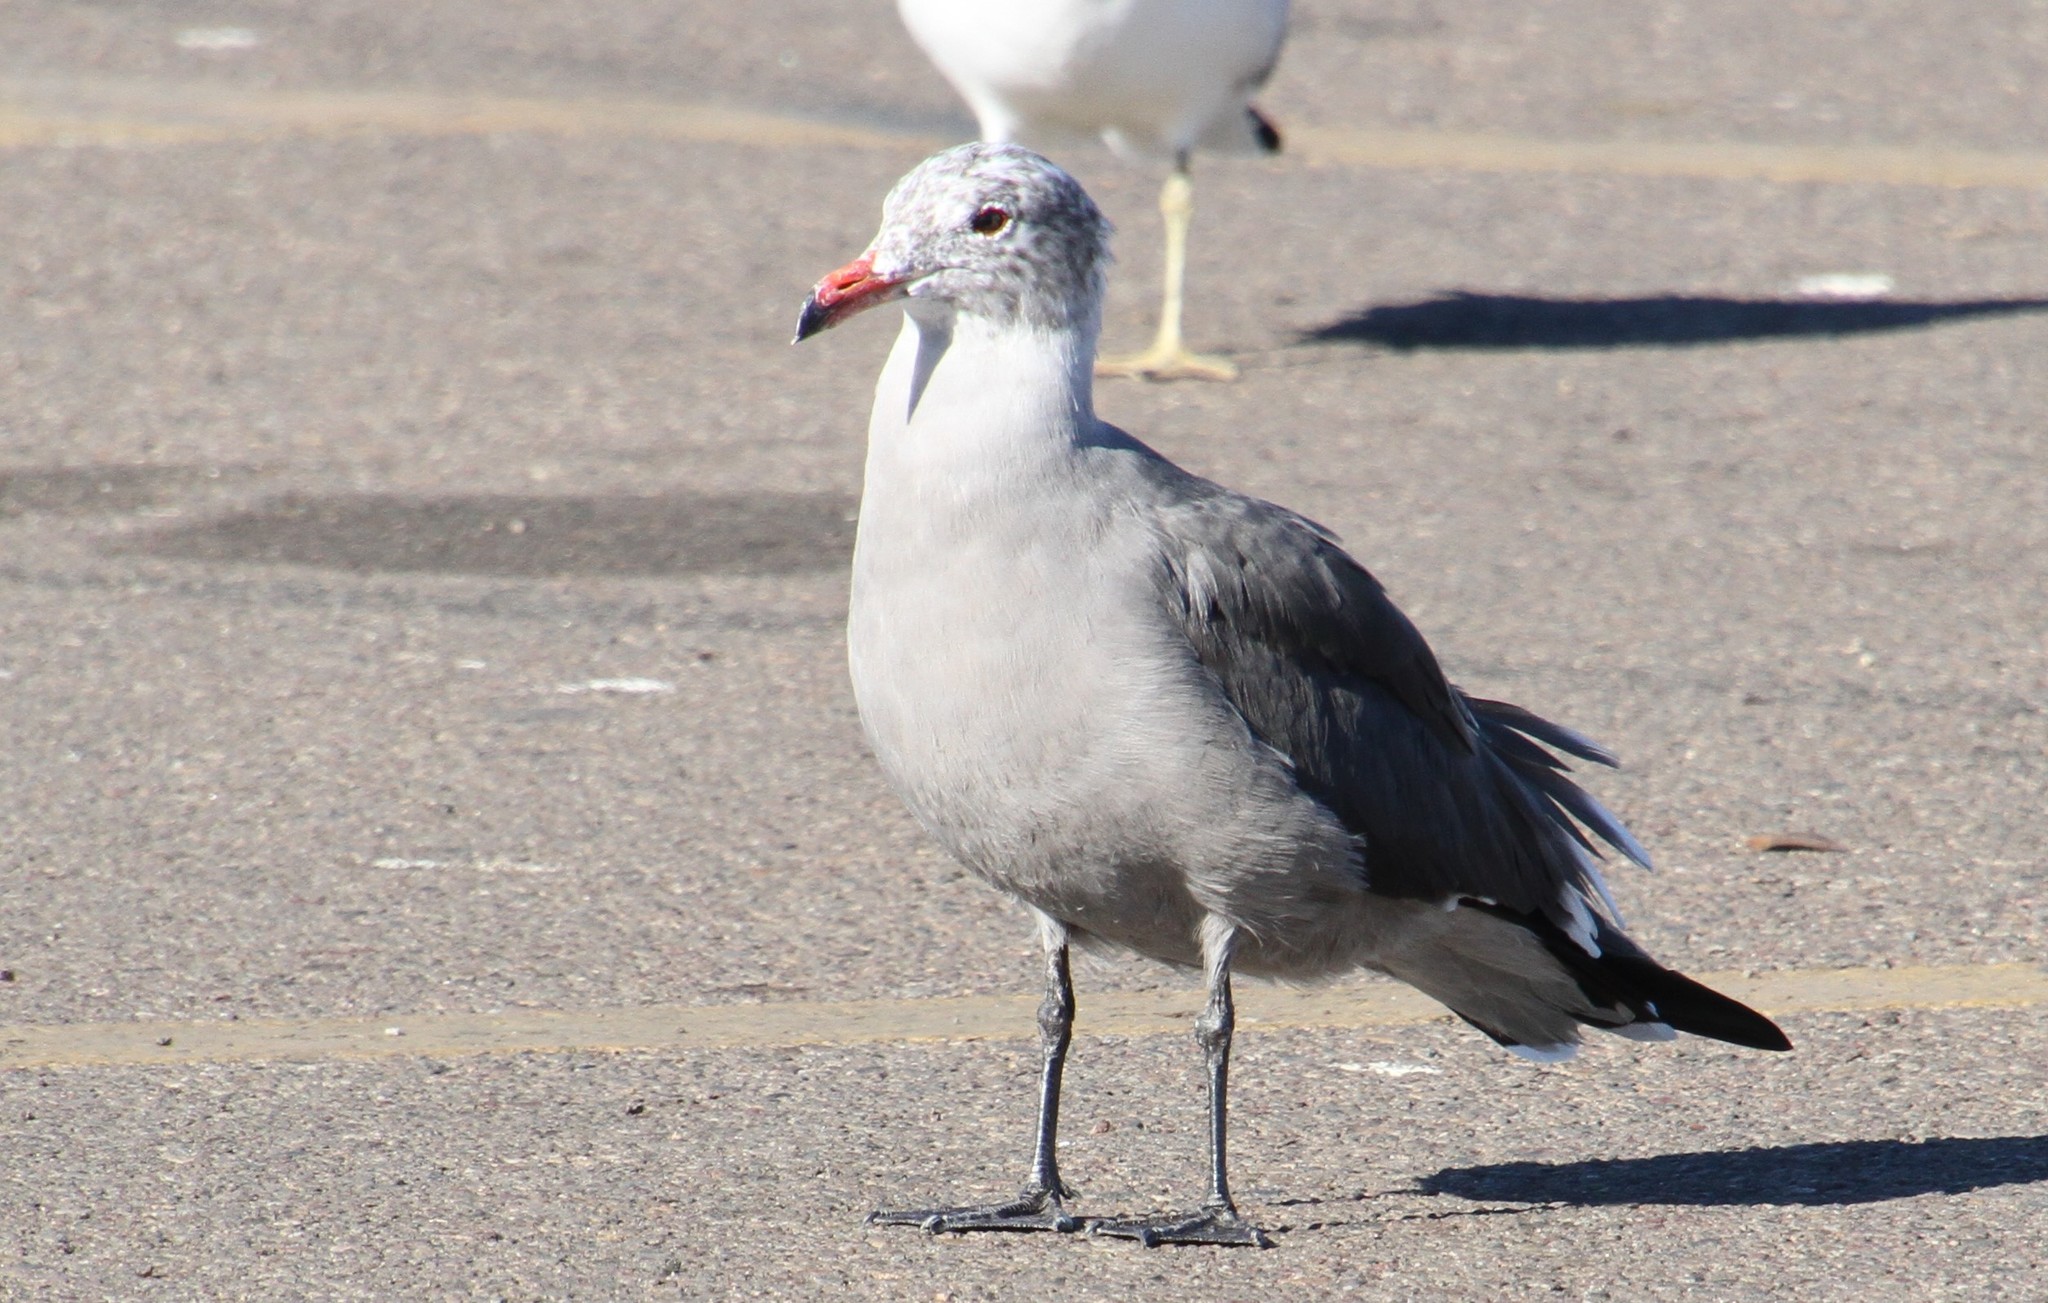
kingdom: Animalia
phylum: Chordata
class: Aves
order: Charadriiformes
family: Laridae
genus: Larus
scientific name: Larus heermanni
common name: Heermann's gull
